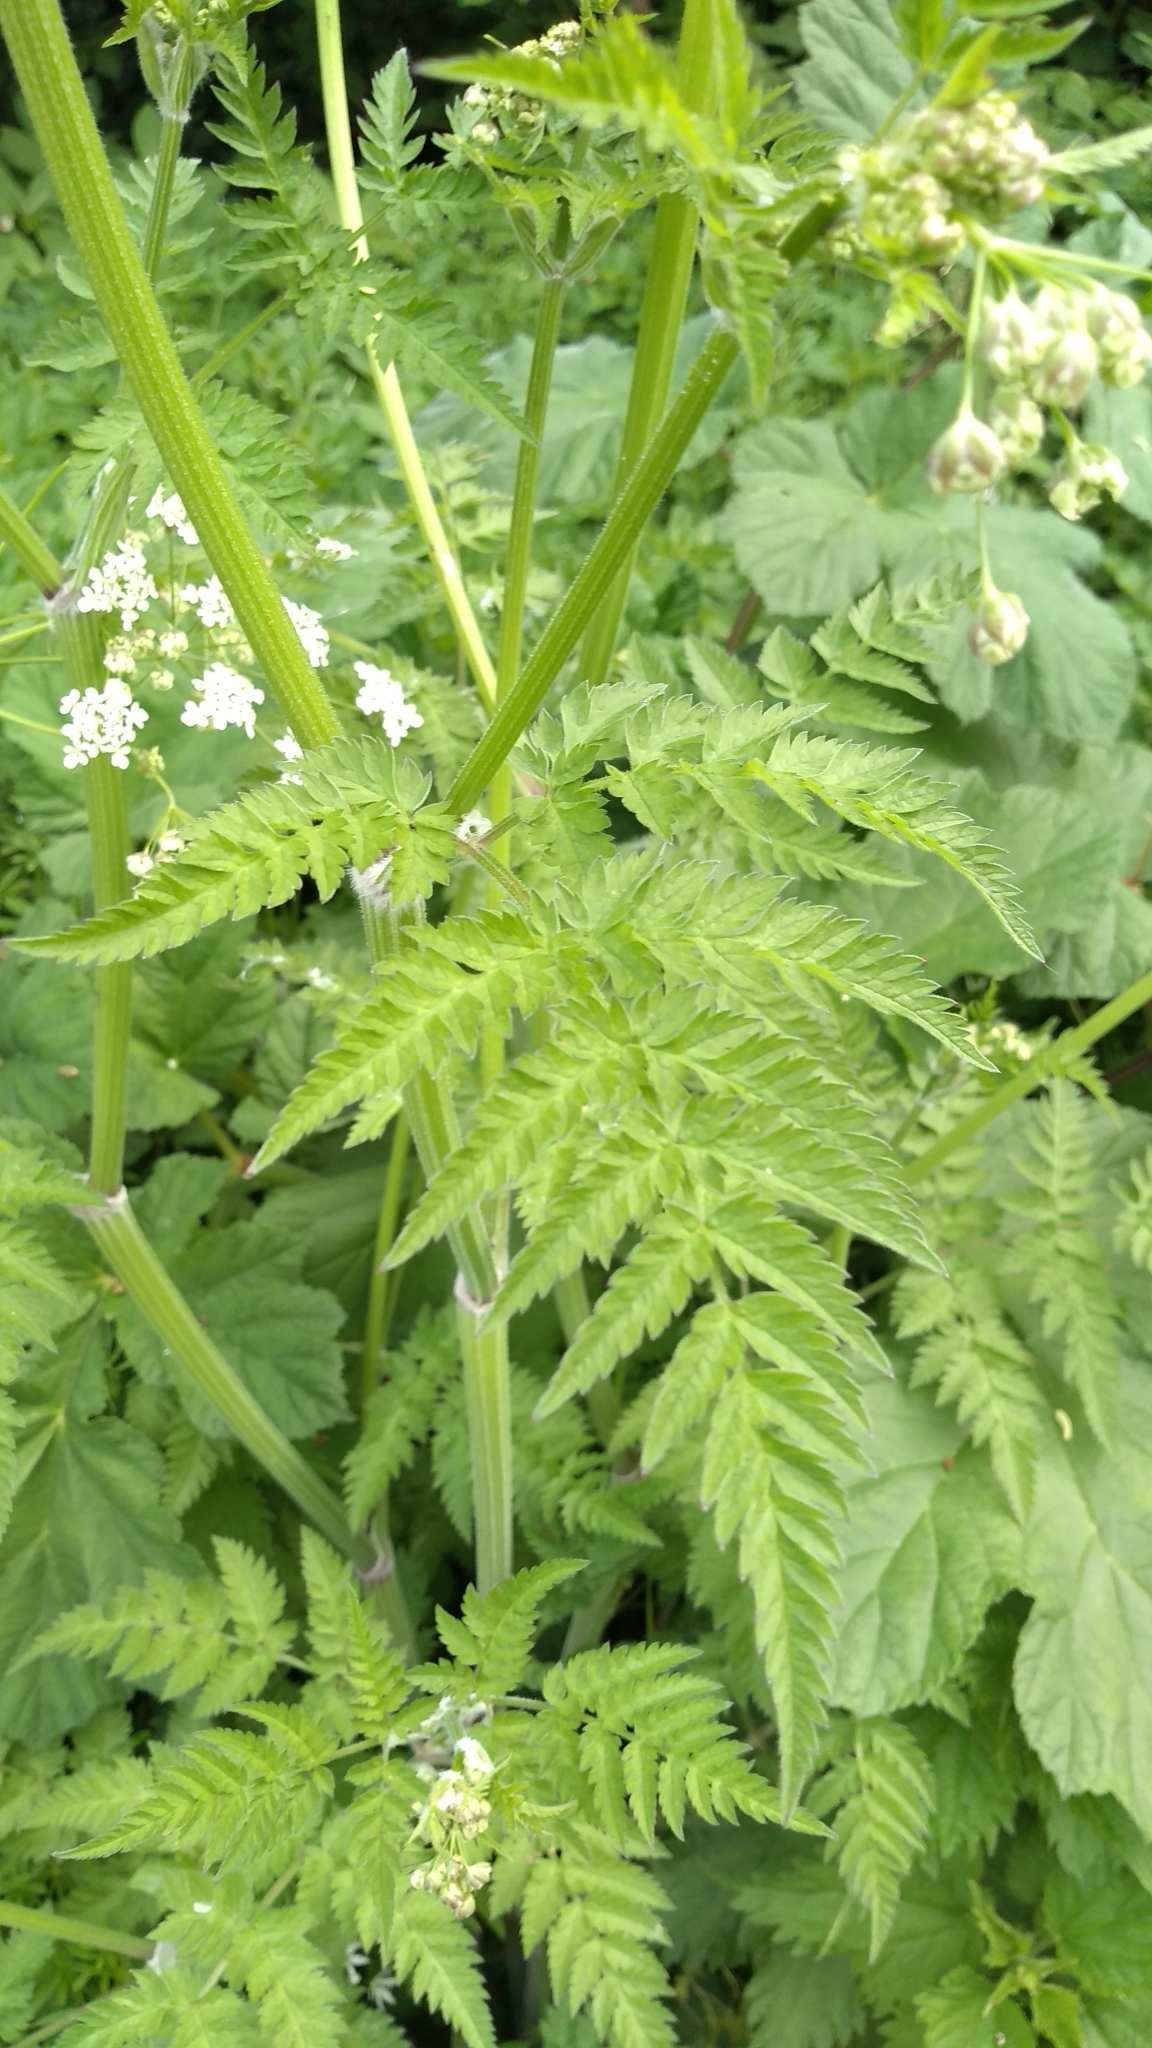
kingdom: Plantae
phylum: Tracheophyta
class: Magnoliopsida
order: Apiales
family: Apiaceae
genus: Anthriscus
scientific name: Anthriscus sylvestris
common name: Cow parsley
